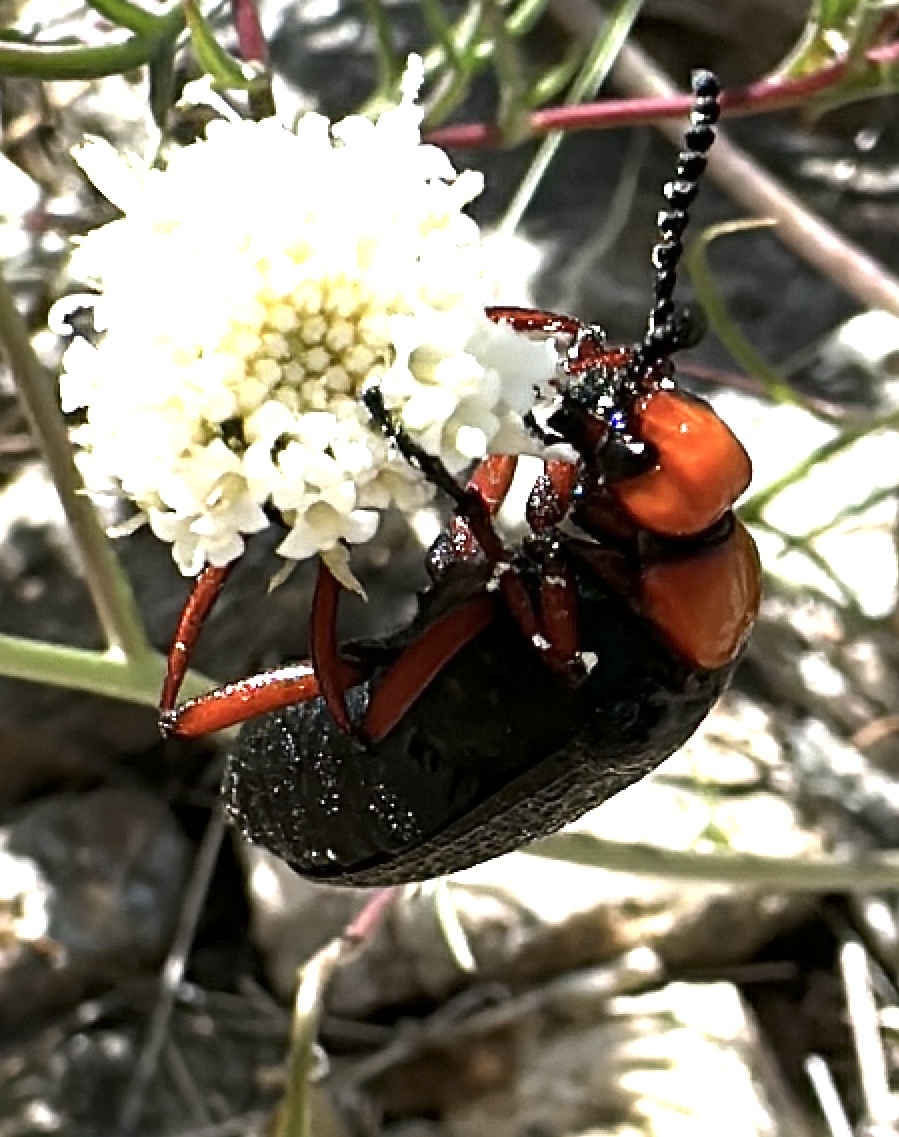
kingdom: Animalia
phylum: Arthropoda
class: Insecta
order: Coleoptera
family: Meloidae
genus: Lytta
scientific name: Lytta magister
